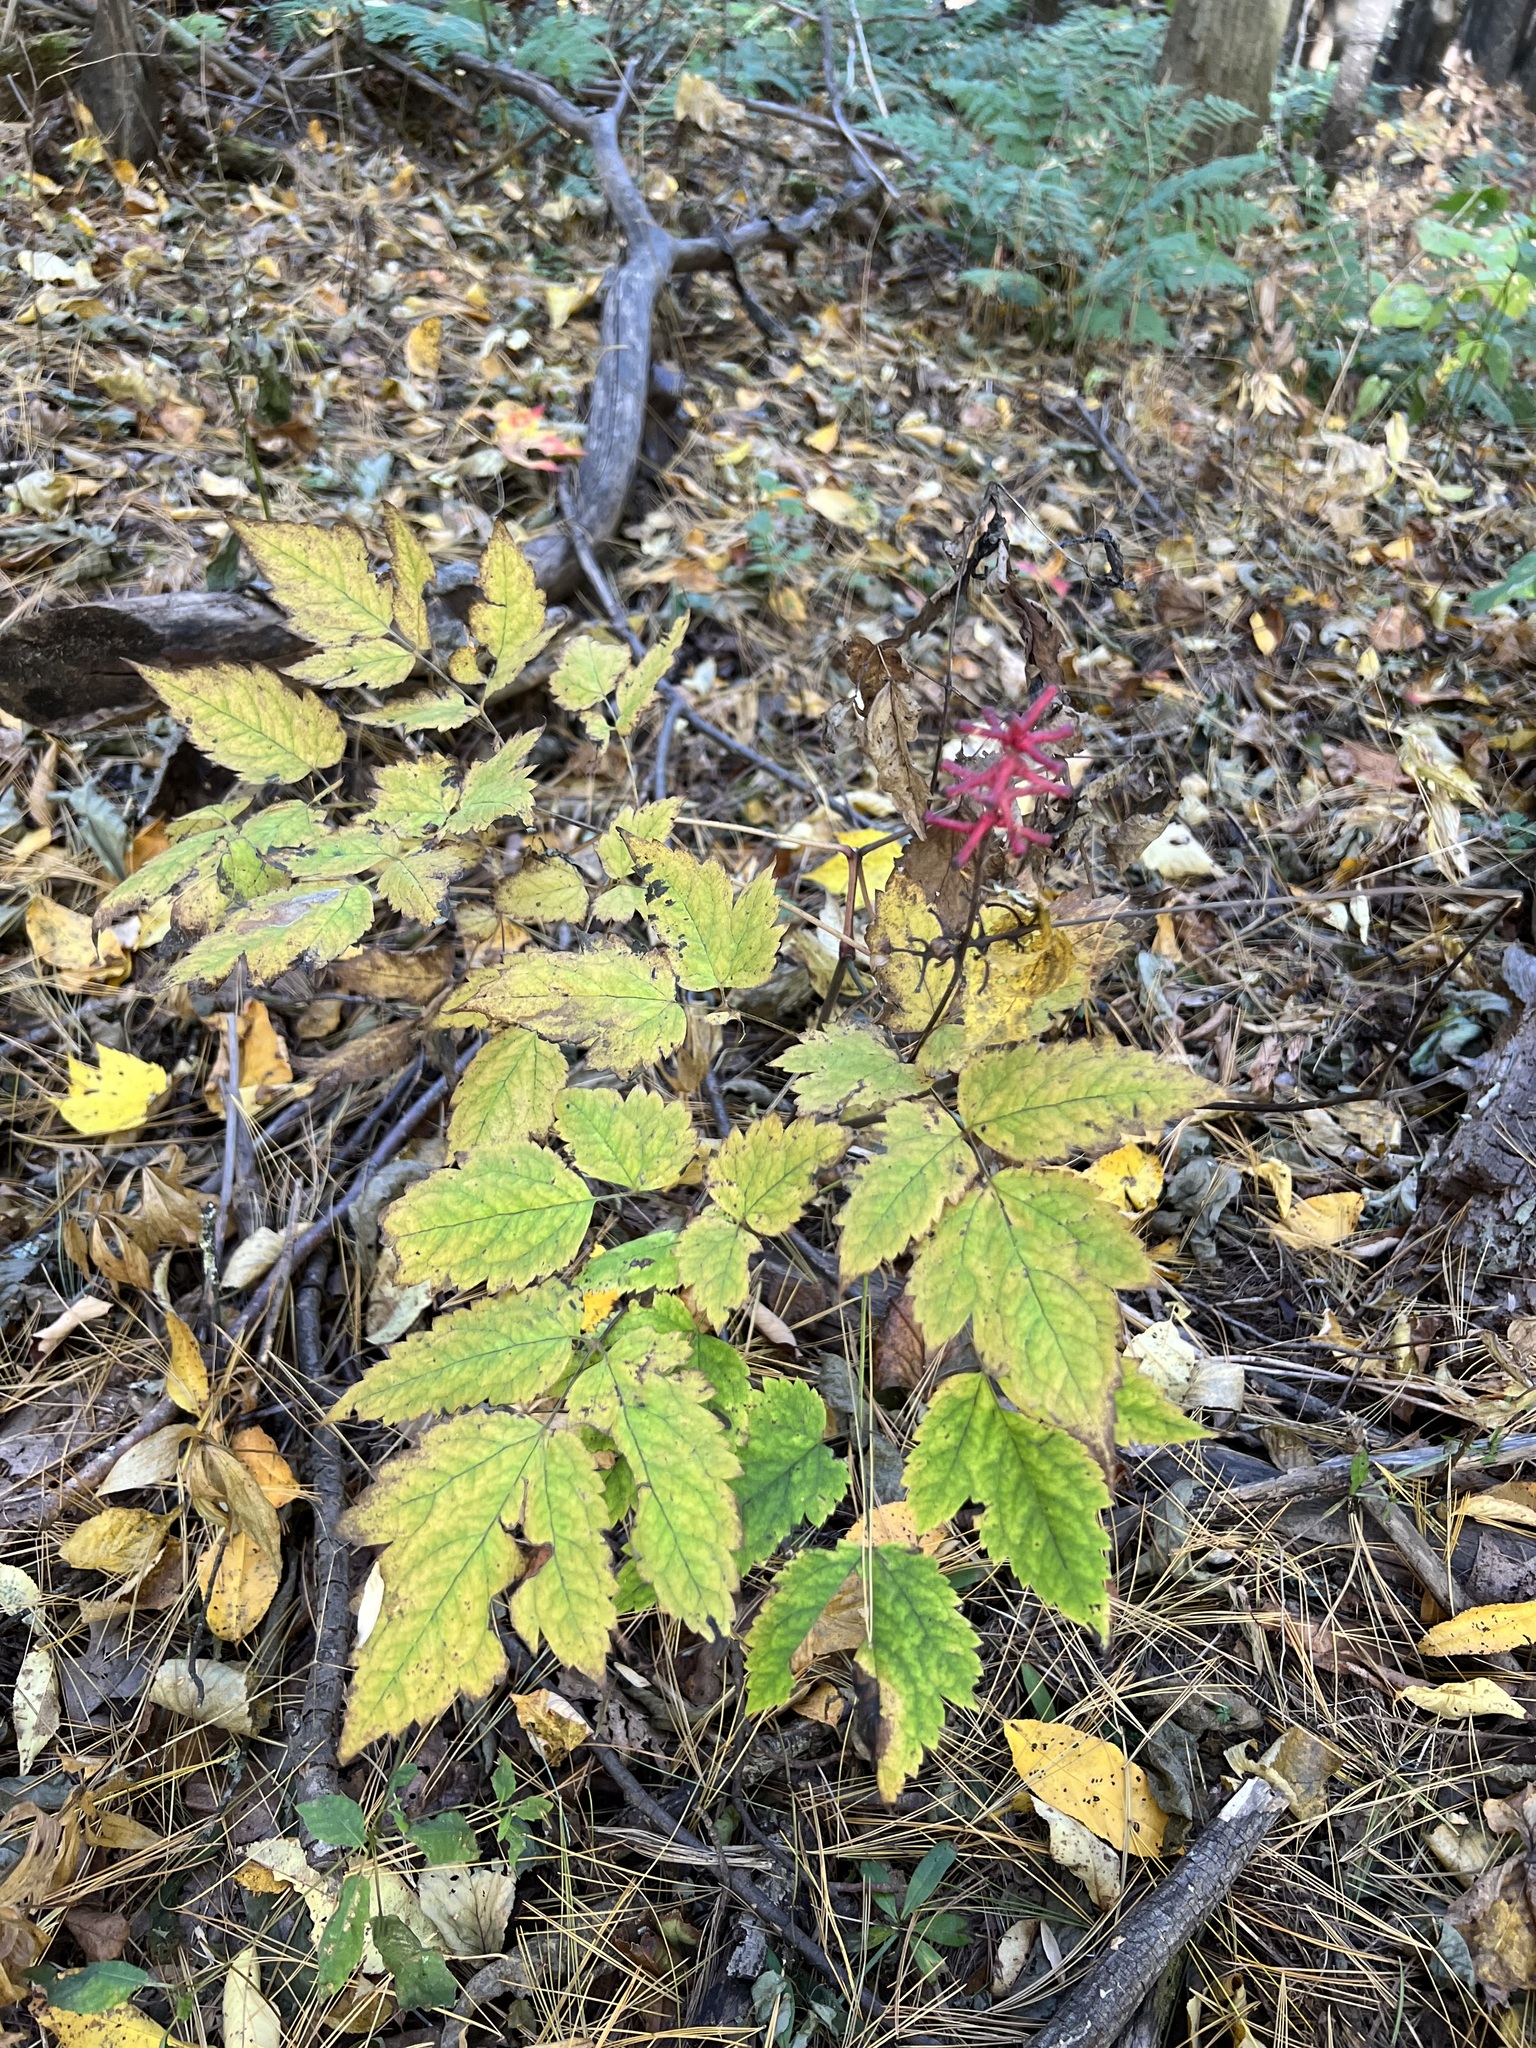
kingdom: Plantae
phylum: Tracheophyta
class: Magnoliopsida
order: Ranunculales
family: Ranunculaceae
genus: Actaea
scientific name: Actaea pachypoda
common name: Doll's-eyes
